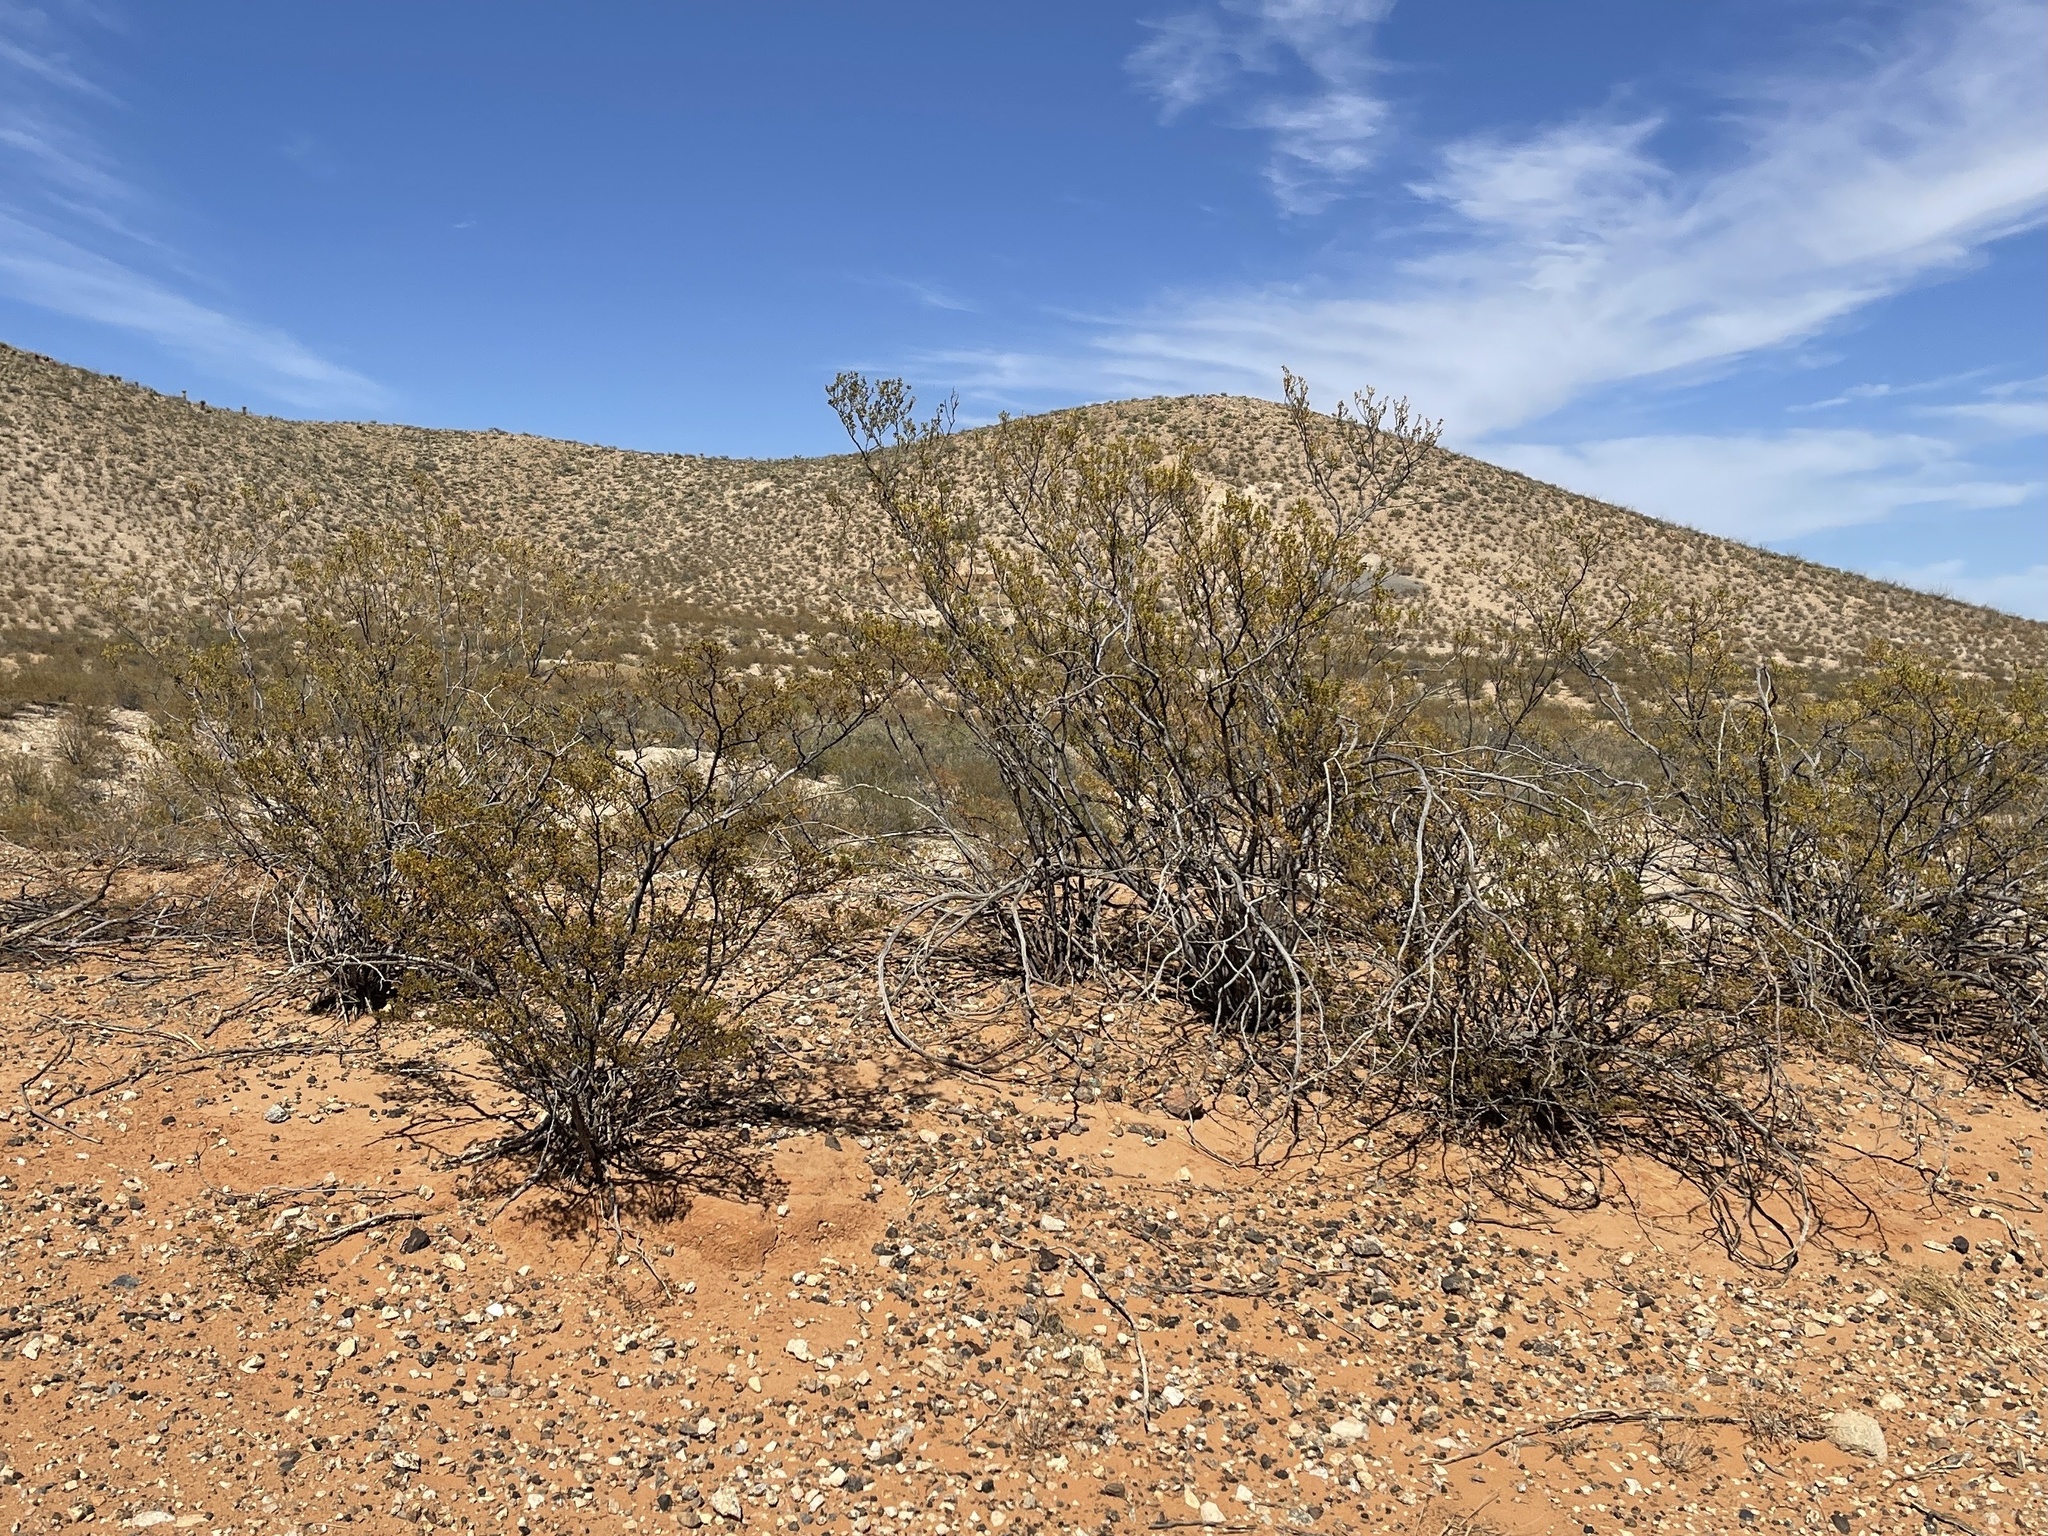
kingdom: Plantae
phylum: Tracheophyta
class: Magnoliopsida
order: Zygophyllales
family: Zygophyllaceae
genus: Larrea
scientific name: Larrea tridentata
